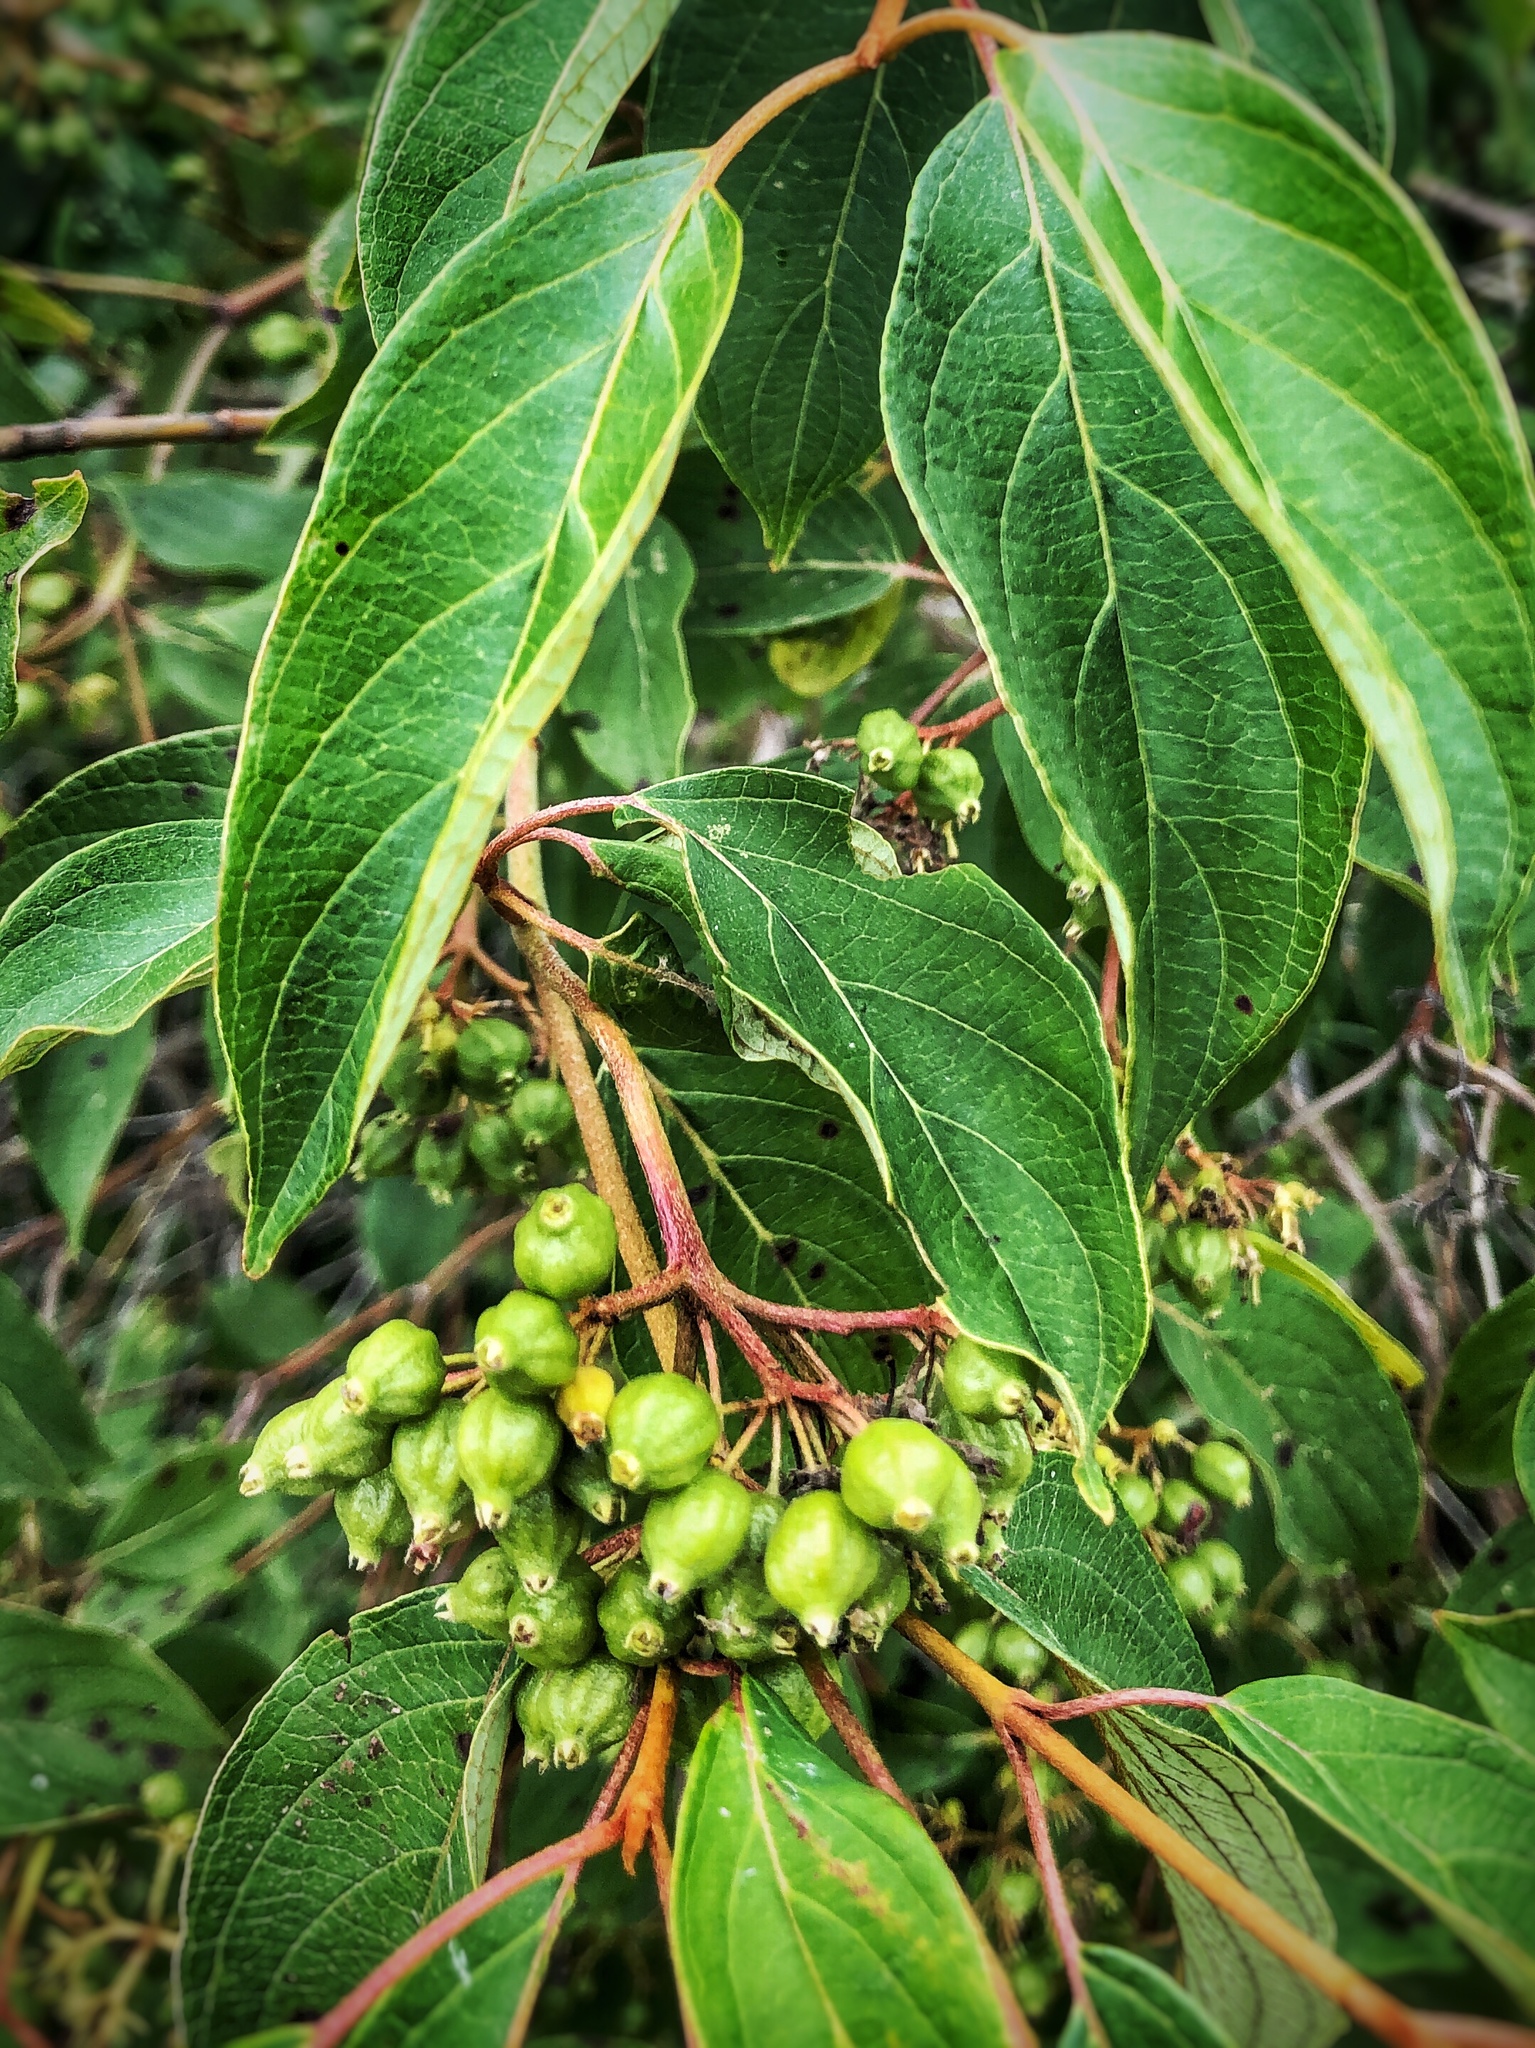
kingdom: Plantae
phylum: Tracheophyta
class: Magnoliopsida
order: Cornales
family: Cornaceae
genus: Cornus
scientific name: Cornus amomum
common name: Silky dogwood
